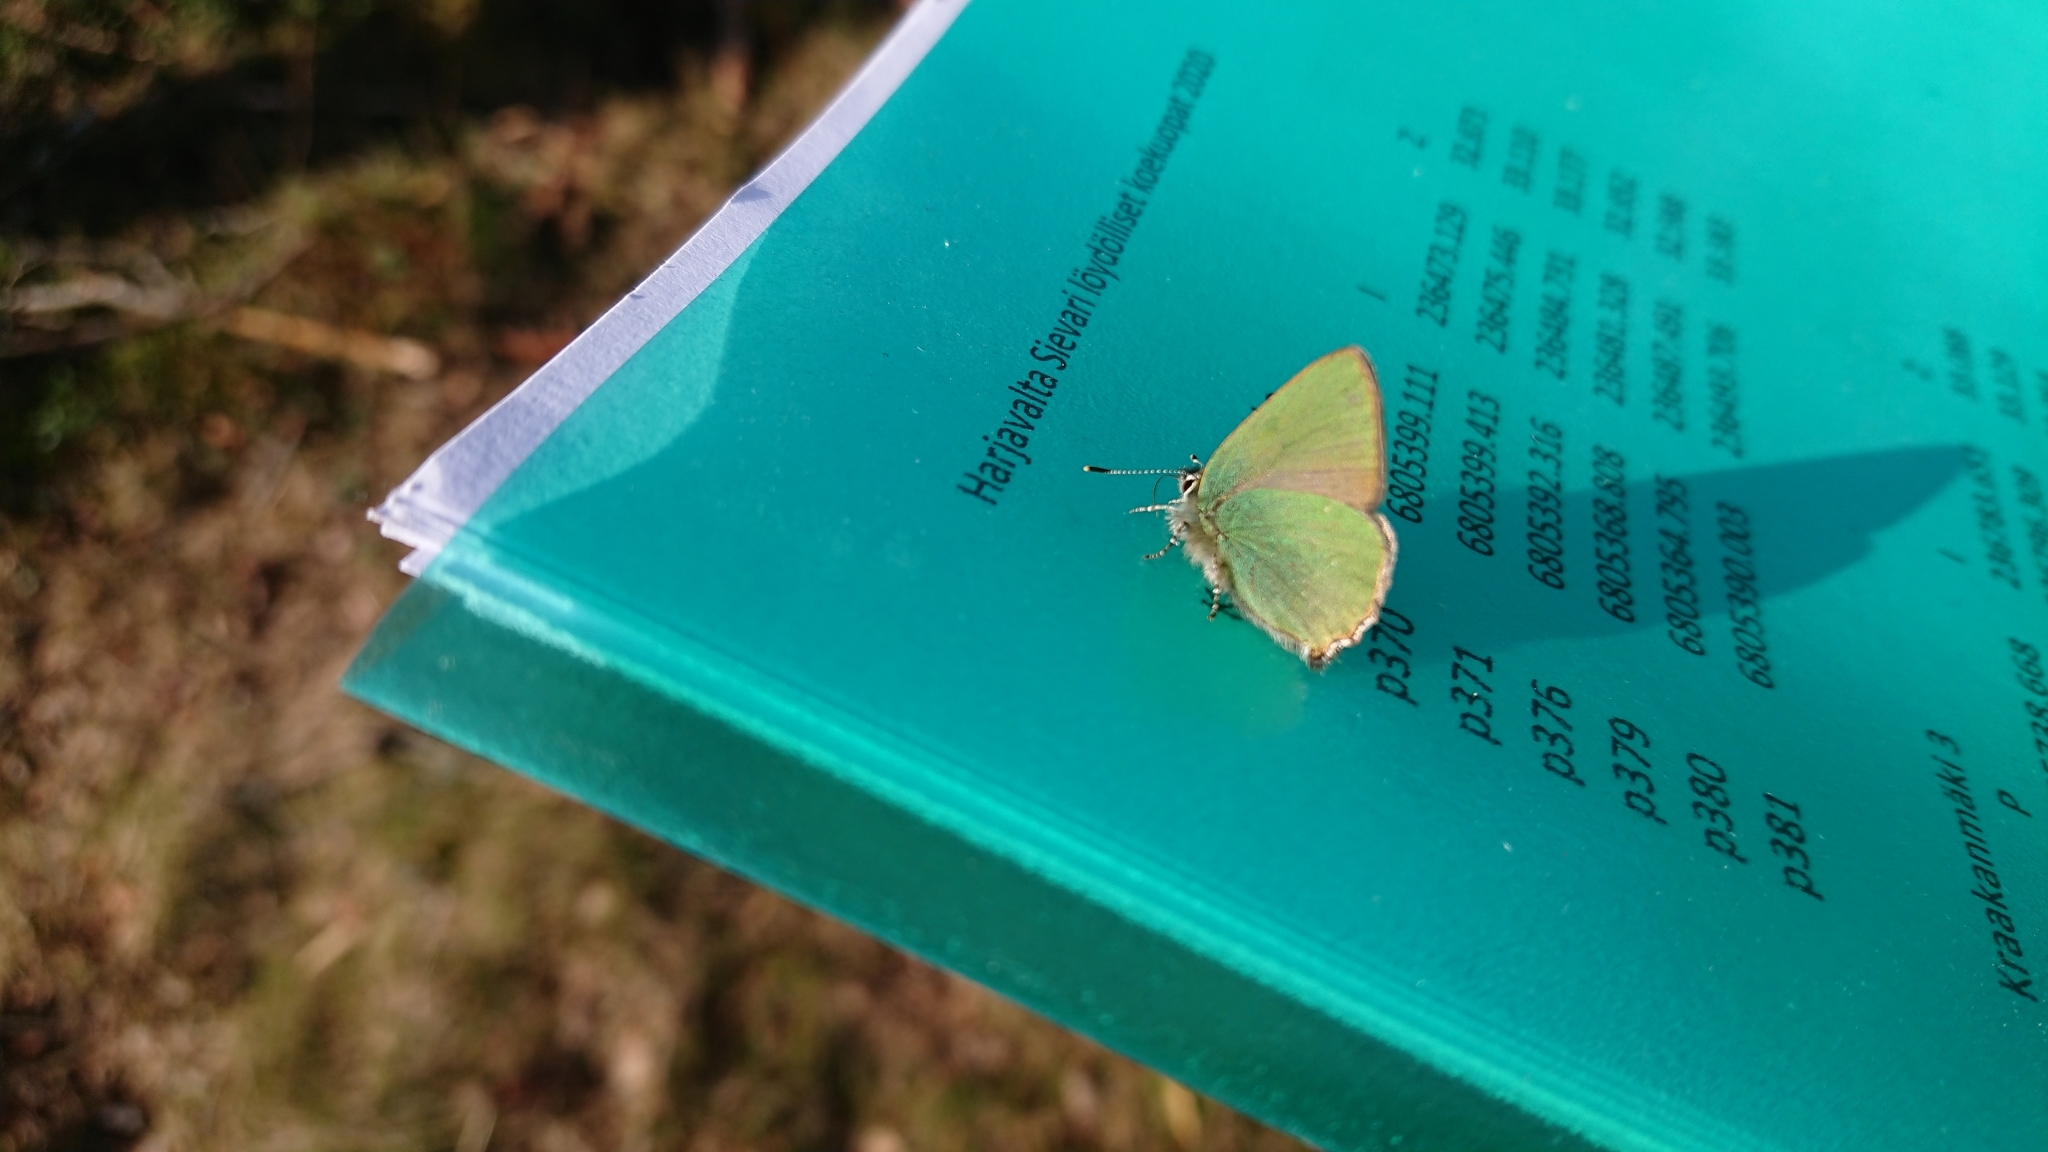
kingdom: Animalia
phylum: Arthropoda
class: Insecta
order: Lepidoptera
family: Lycaenidae
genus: Callophrys
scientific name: Callophrys rubi
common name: Green hairstreak
